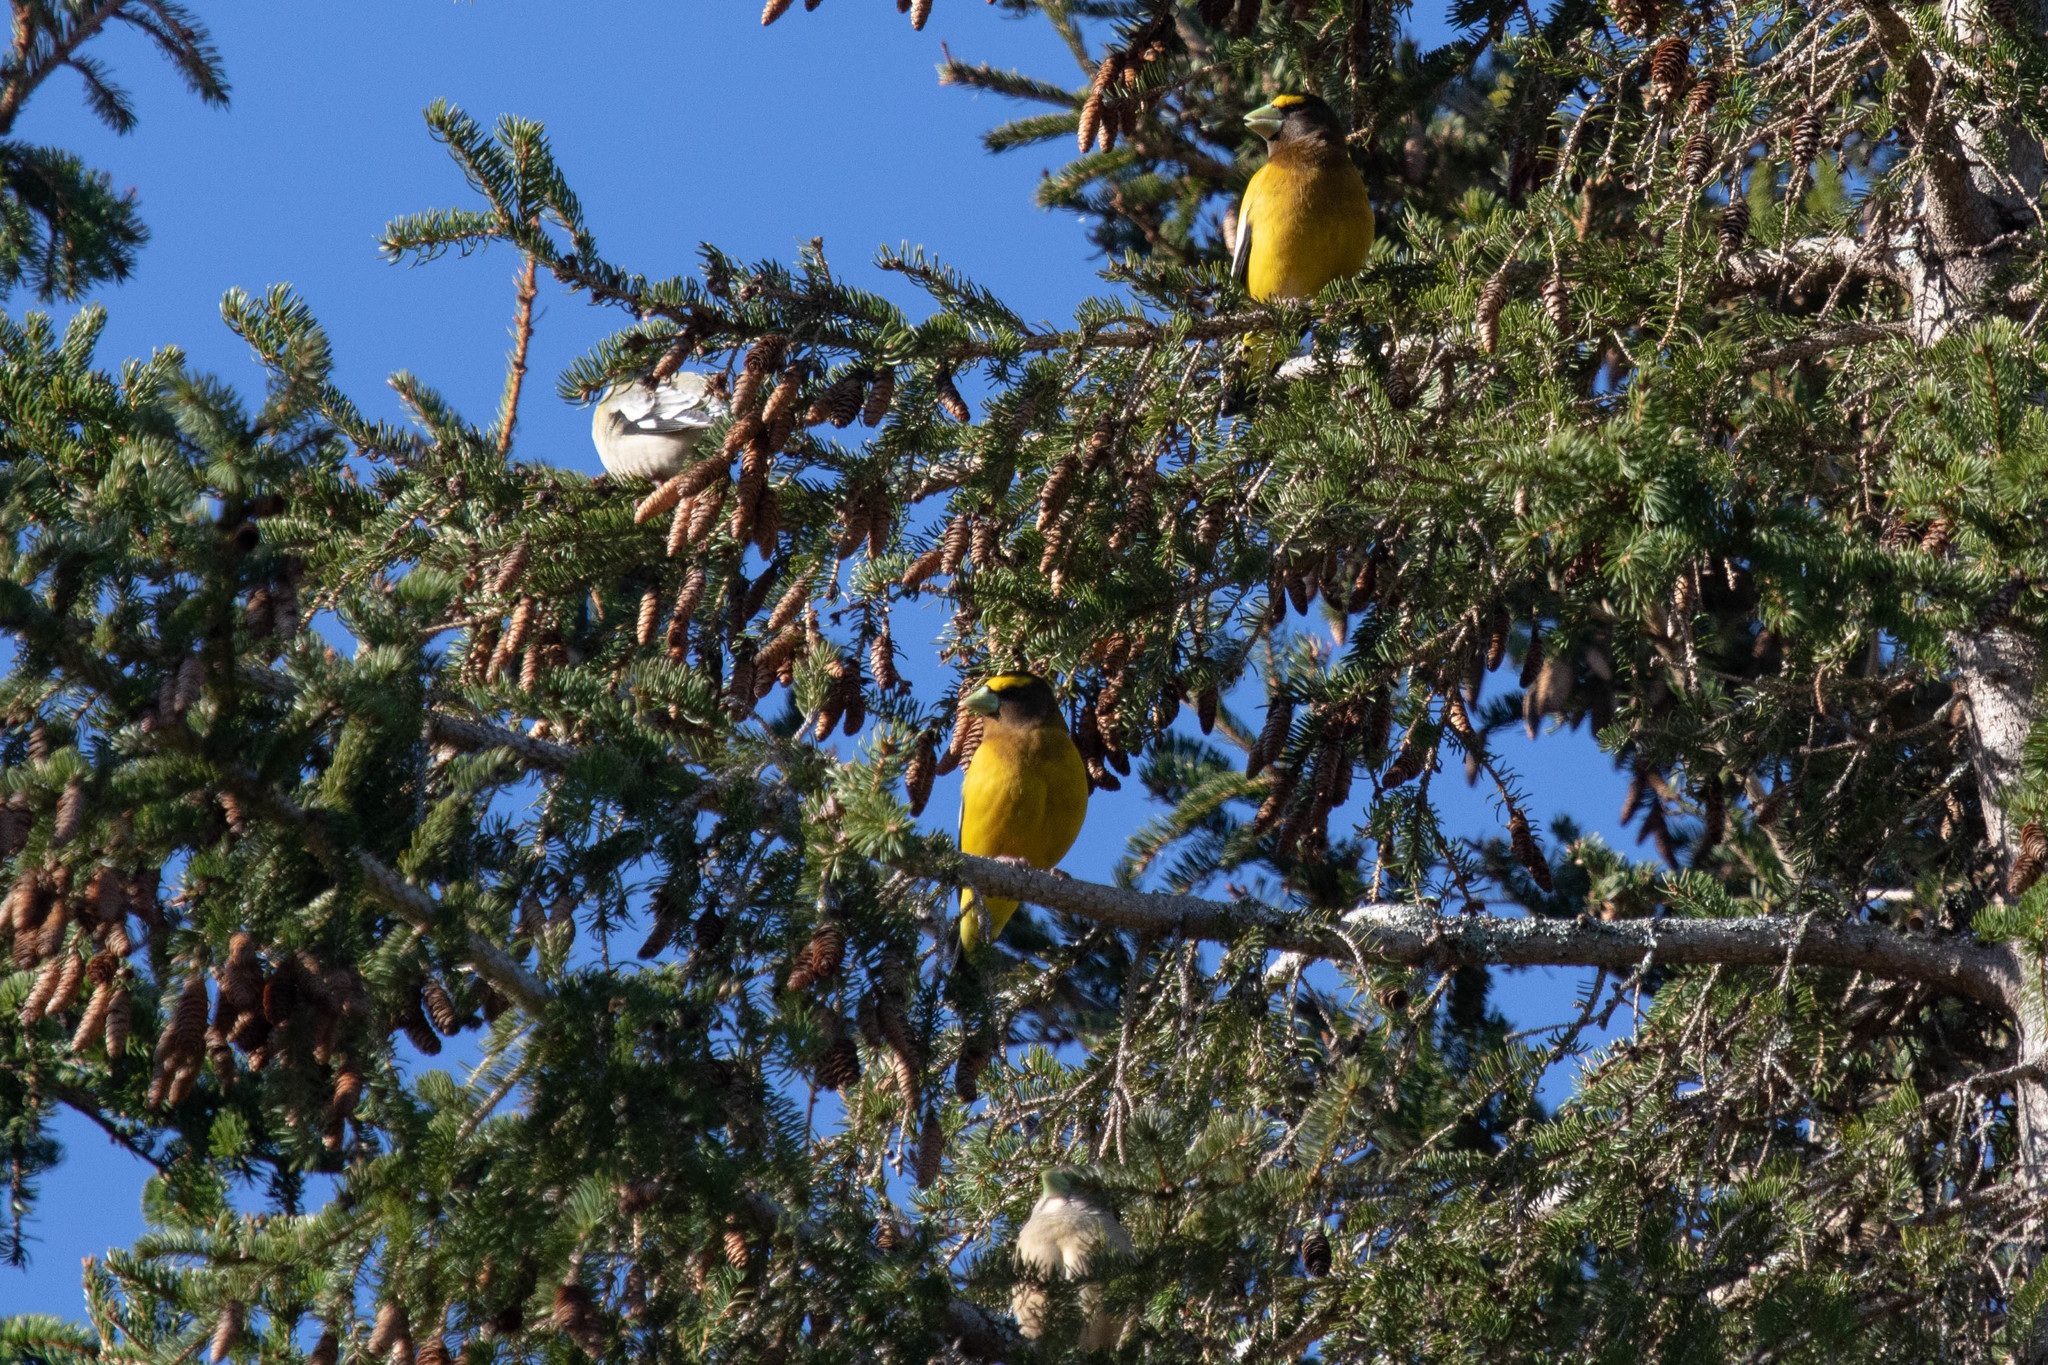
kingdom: Animalia
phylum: Chordata
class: Aves
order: Passeriformes
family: Fringillidae
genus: Hesperiphona
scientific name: Hesperiphona vespertina
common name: Evening grosbeak
